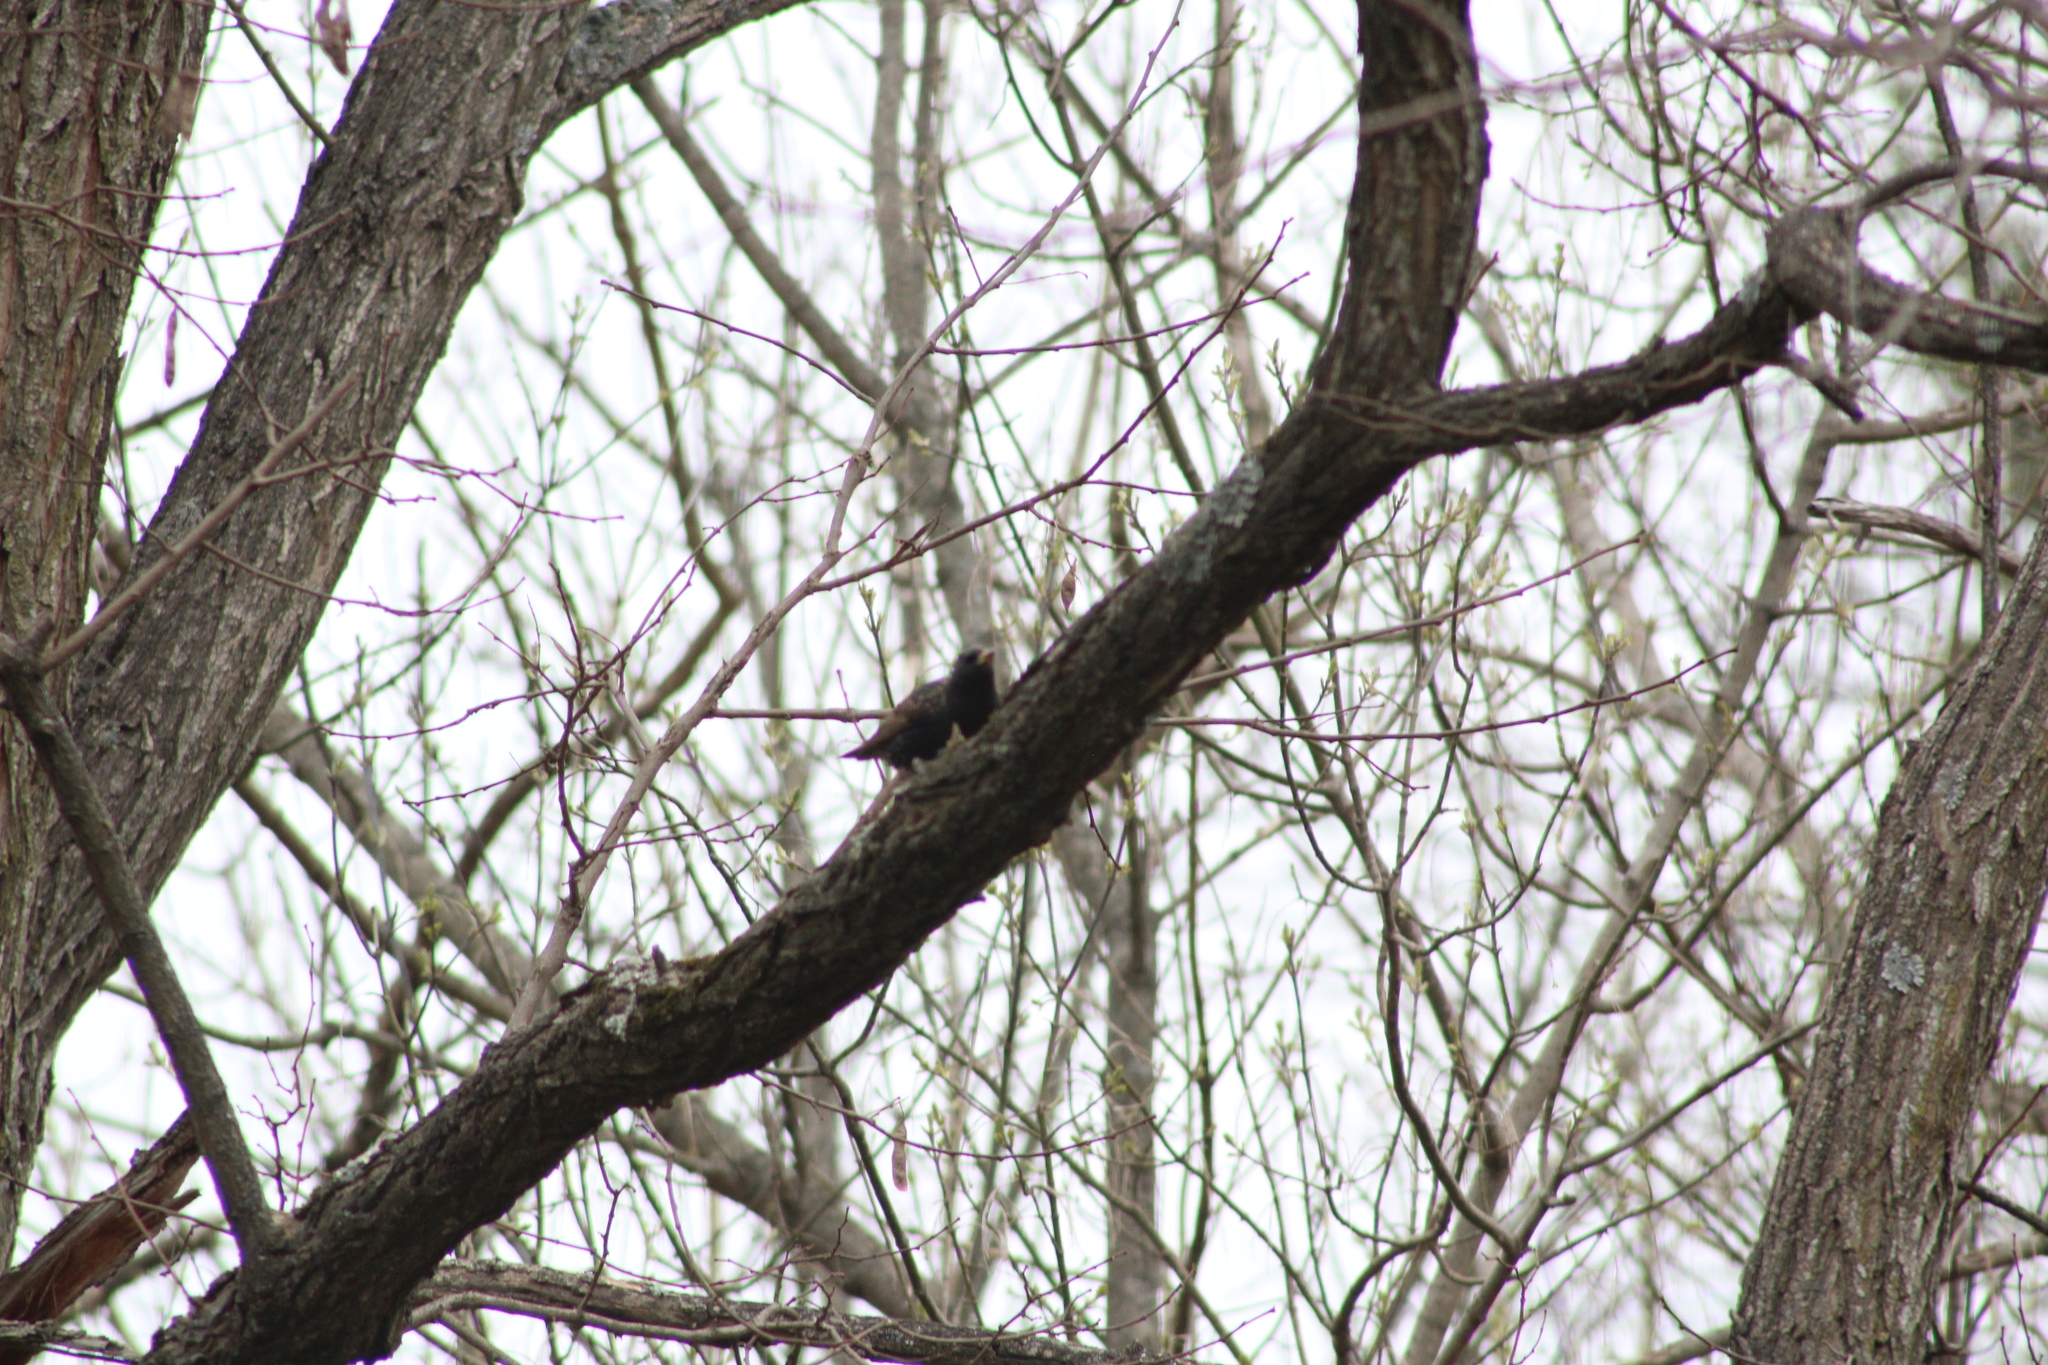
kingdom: Animalia
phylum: Chordata
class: Aves
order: Passeriformes
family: Sturnidae
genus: Sturnus
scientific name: Sturnus vulgaris
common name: Common starling
